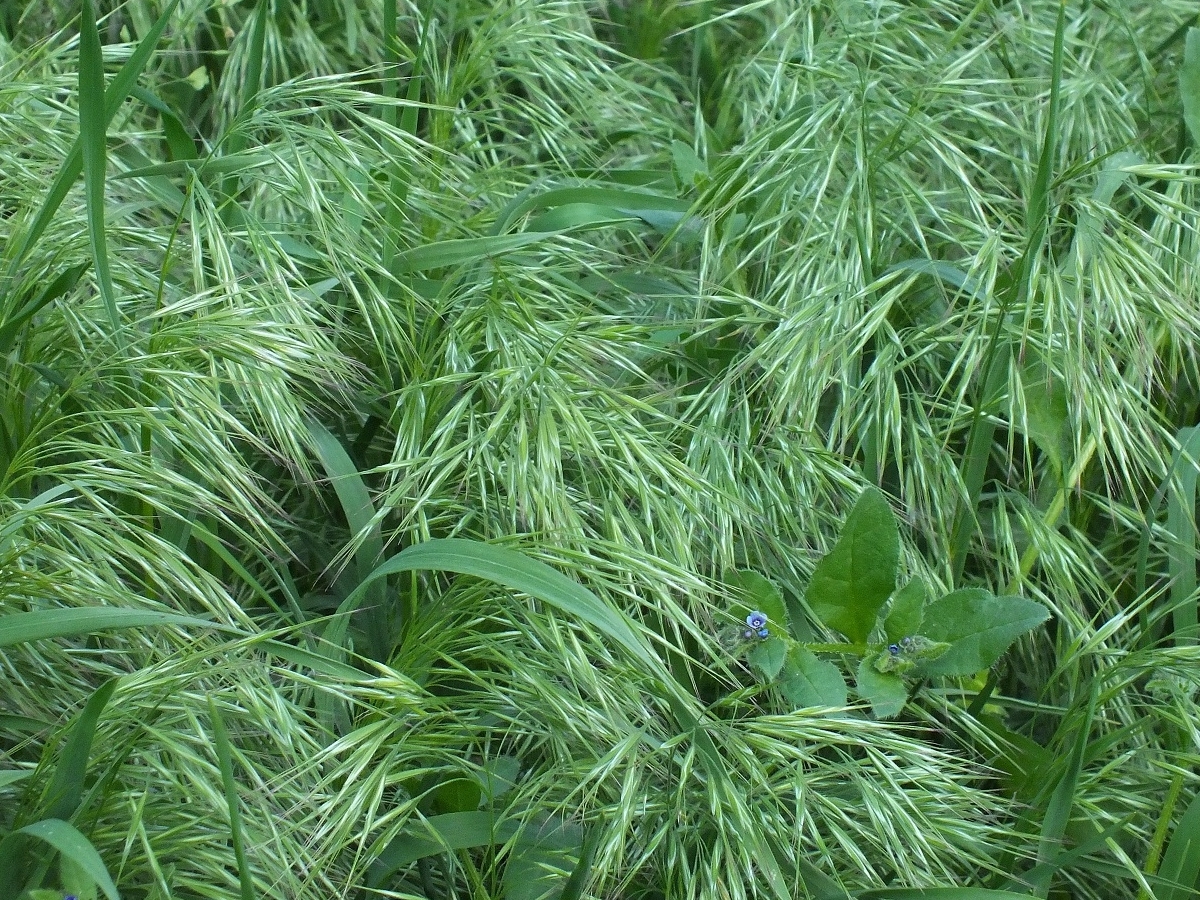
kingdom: Plantae
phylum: Tracheophyta
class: Liliopsida
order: Poales
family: Poaceae
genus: Bromus
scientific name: Bromus tectorum
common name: Cheatgrass
